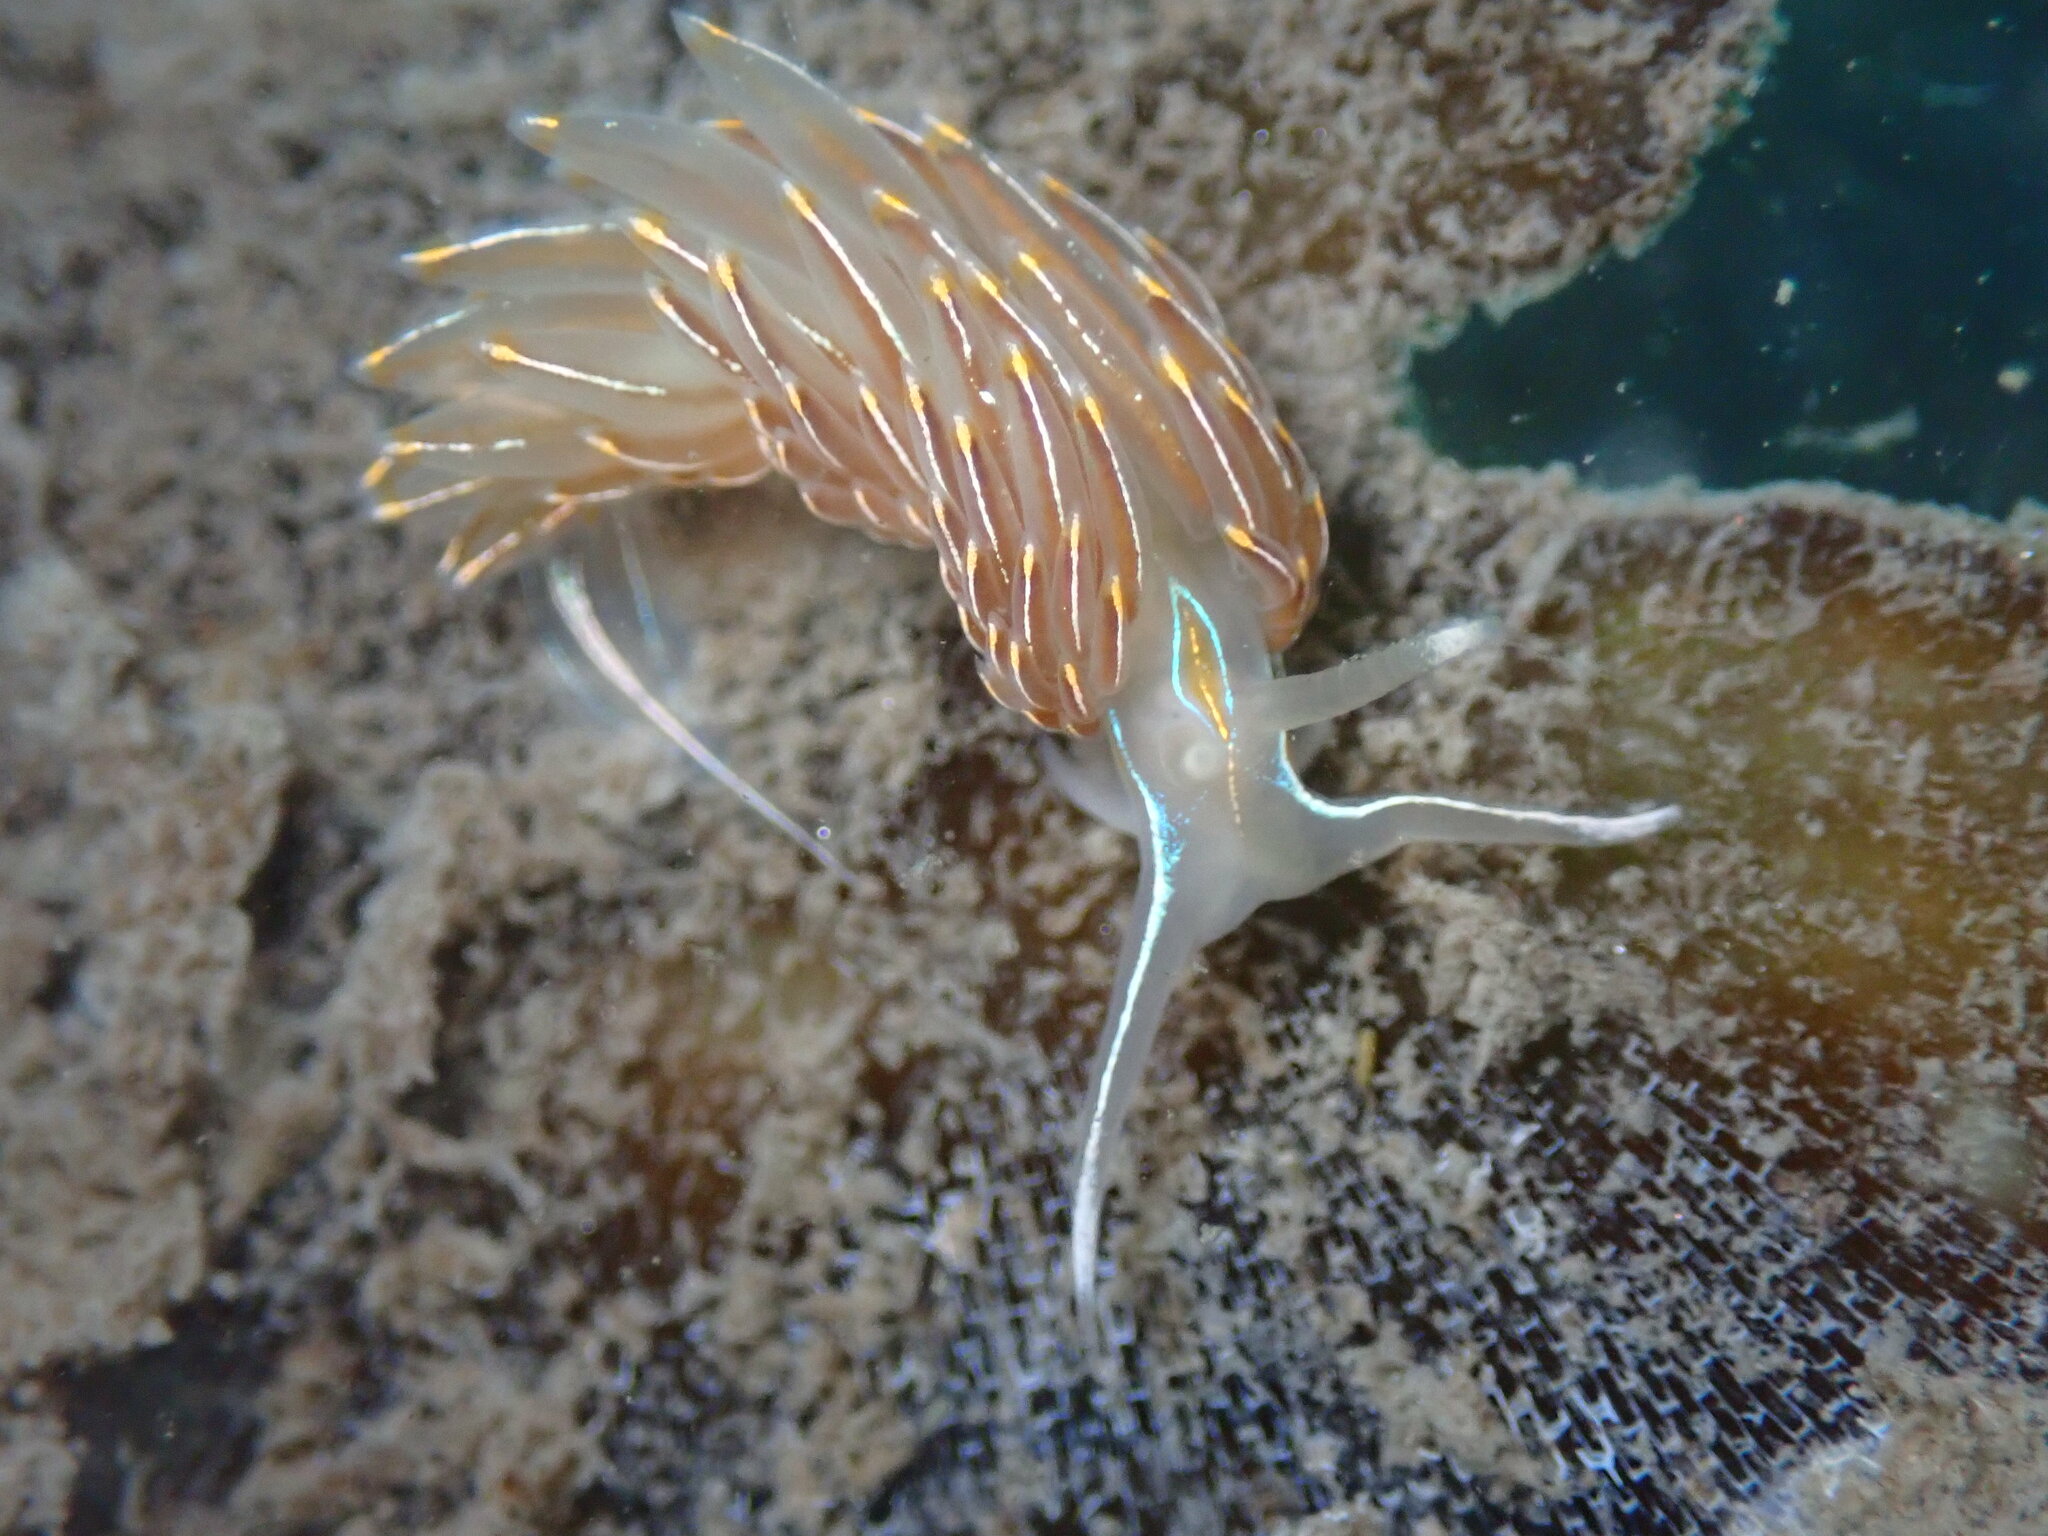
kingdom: Animalia
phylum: Mollusca
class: Gastropoda
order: Nudibranchia
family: Myrrhinidae
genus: Hermissenda
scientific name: Hermissenda crassicornis
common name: Hermissenda
